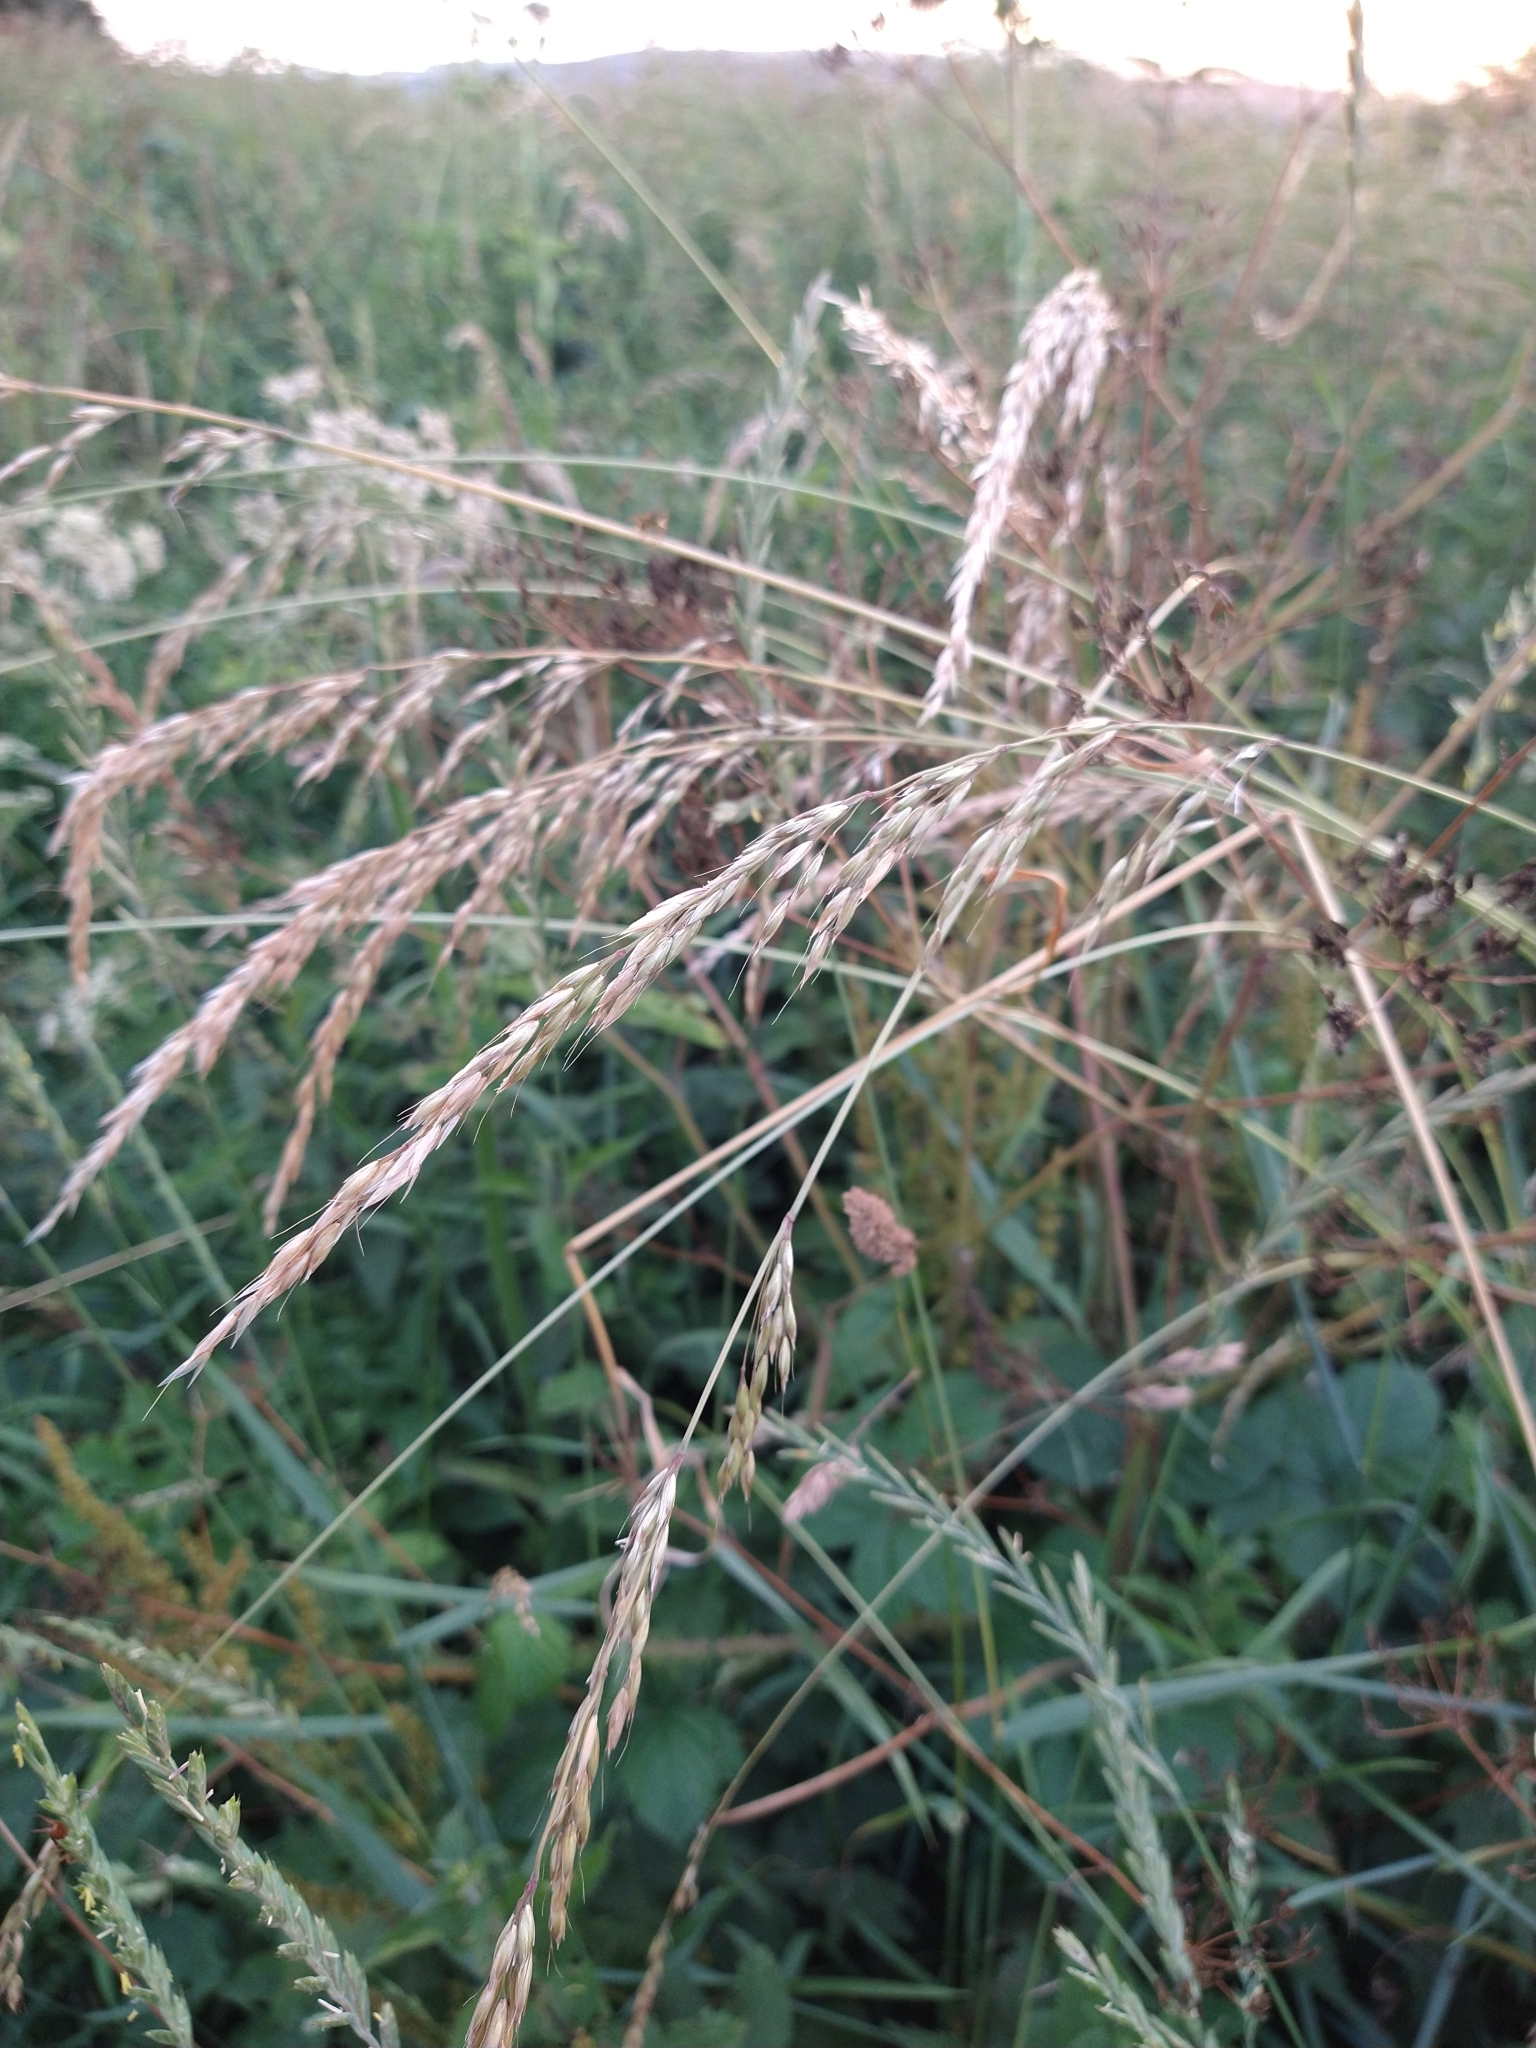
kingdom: Plantae
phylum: Tracheophyta
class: Liliopsida
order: Poales
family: Poaceae
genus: Arrhenatherum
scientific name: Arrhenatherum elatius
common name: Tall oatgrass
